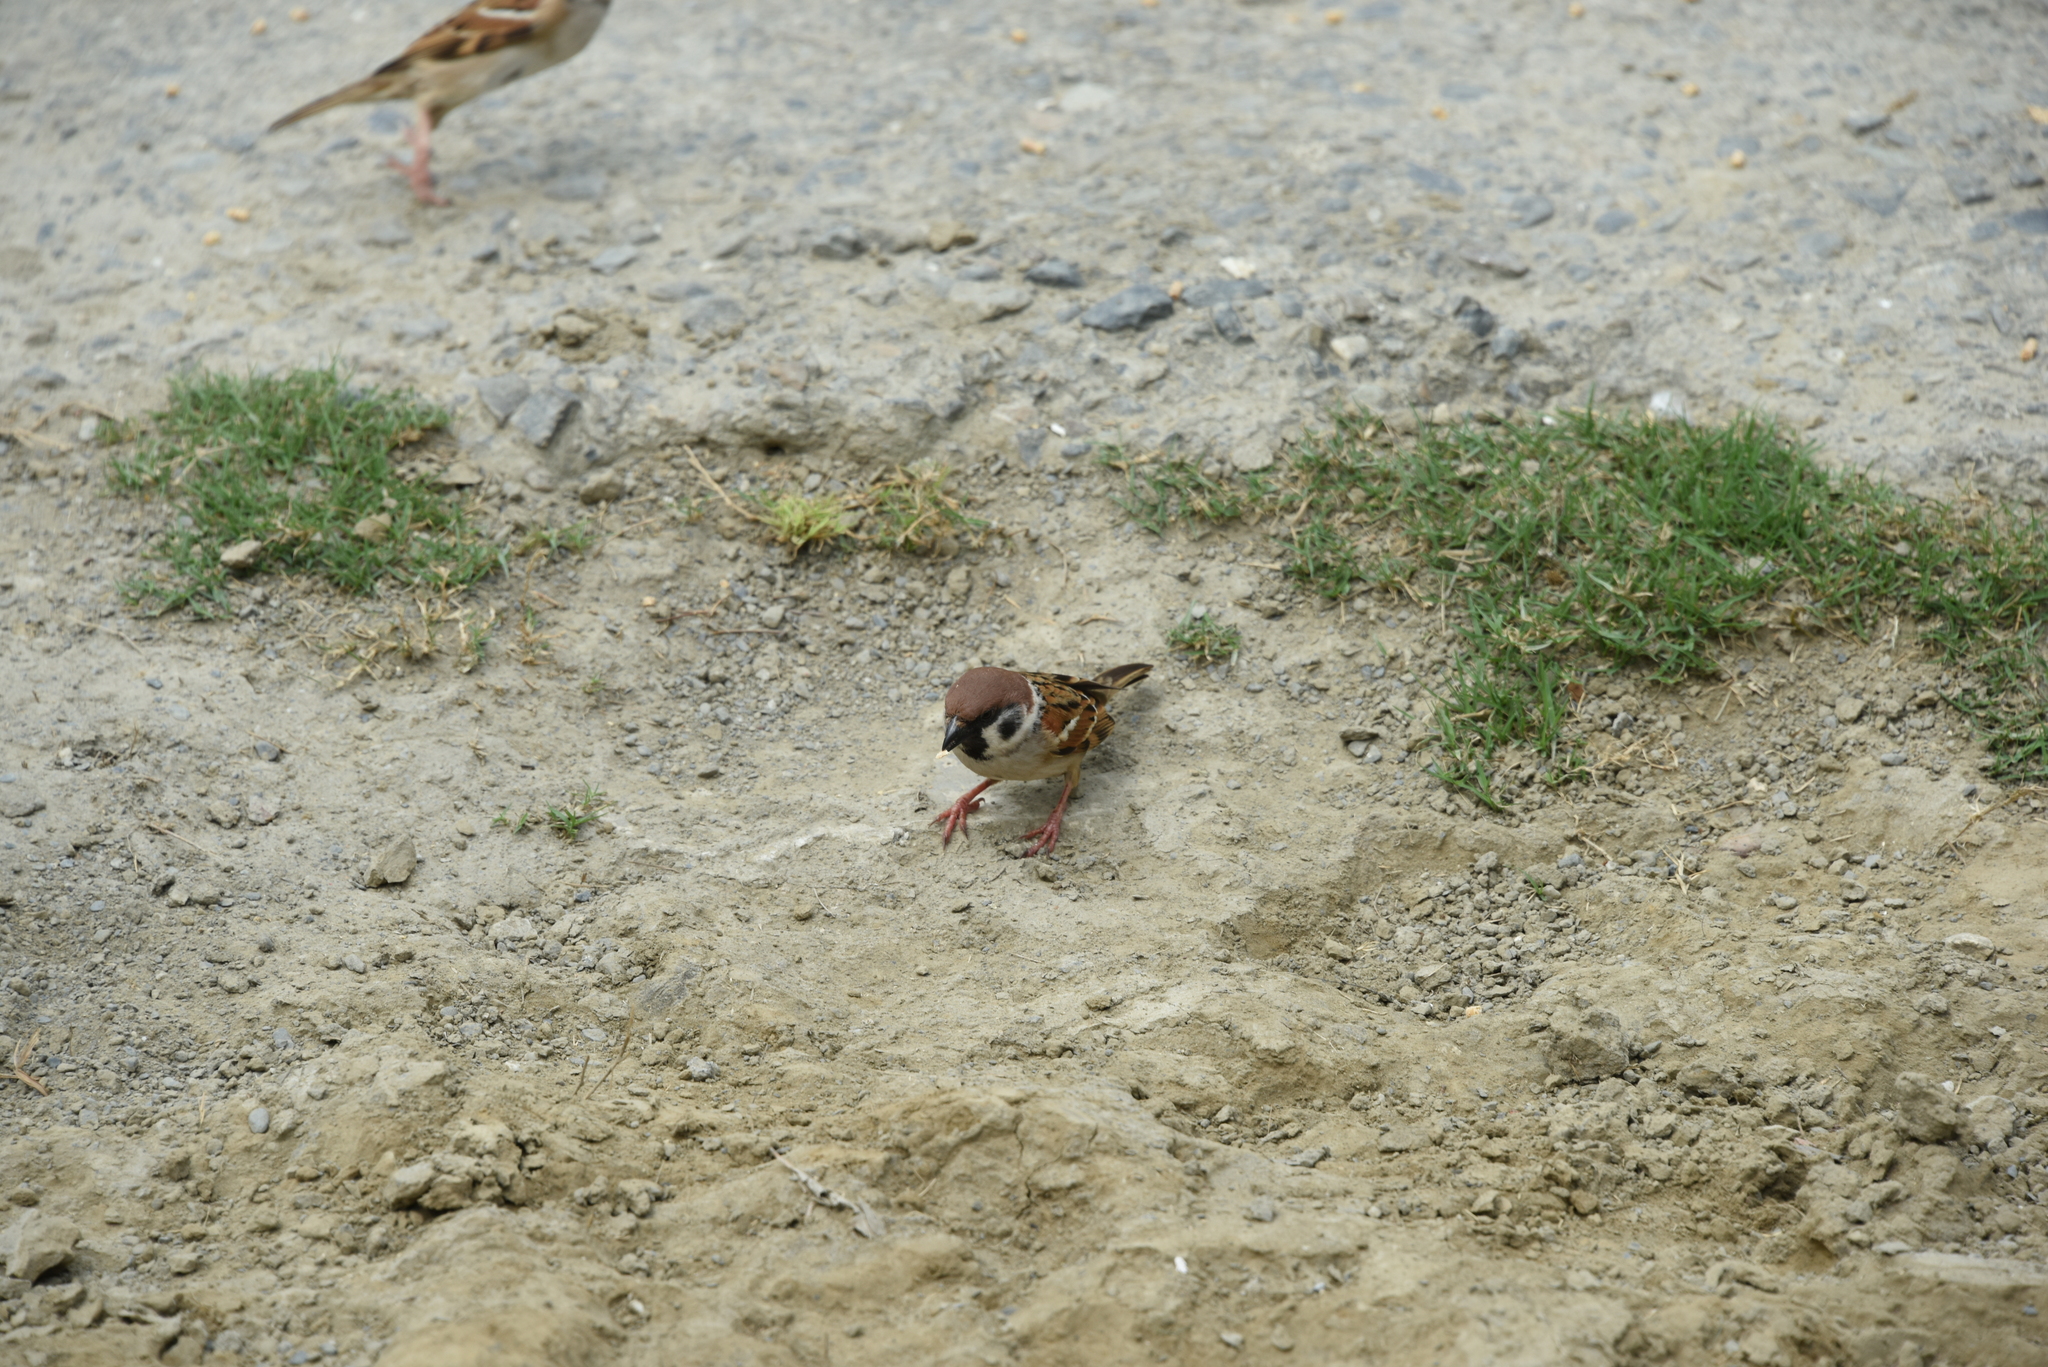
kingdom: Animalia
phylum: Chordata
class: Aves
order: Passeriformes
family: Passeridae
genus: Passer
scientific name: Passer montanus
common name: Eurasian tree sparrow
